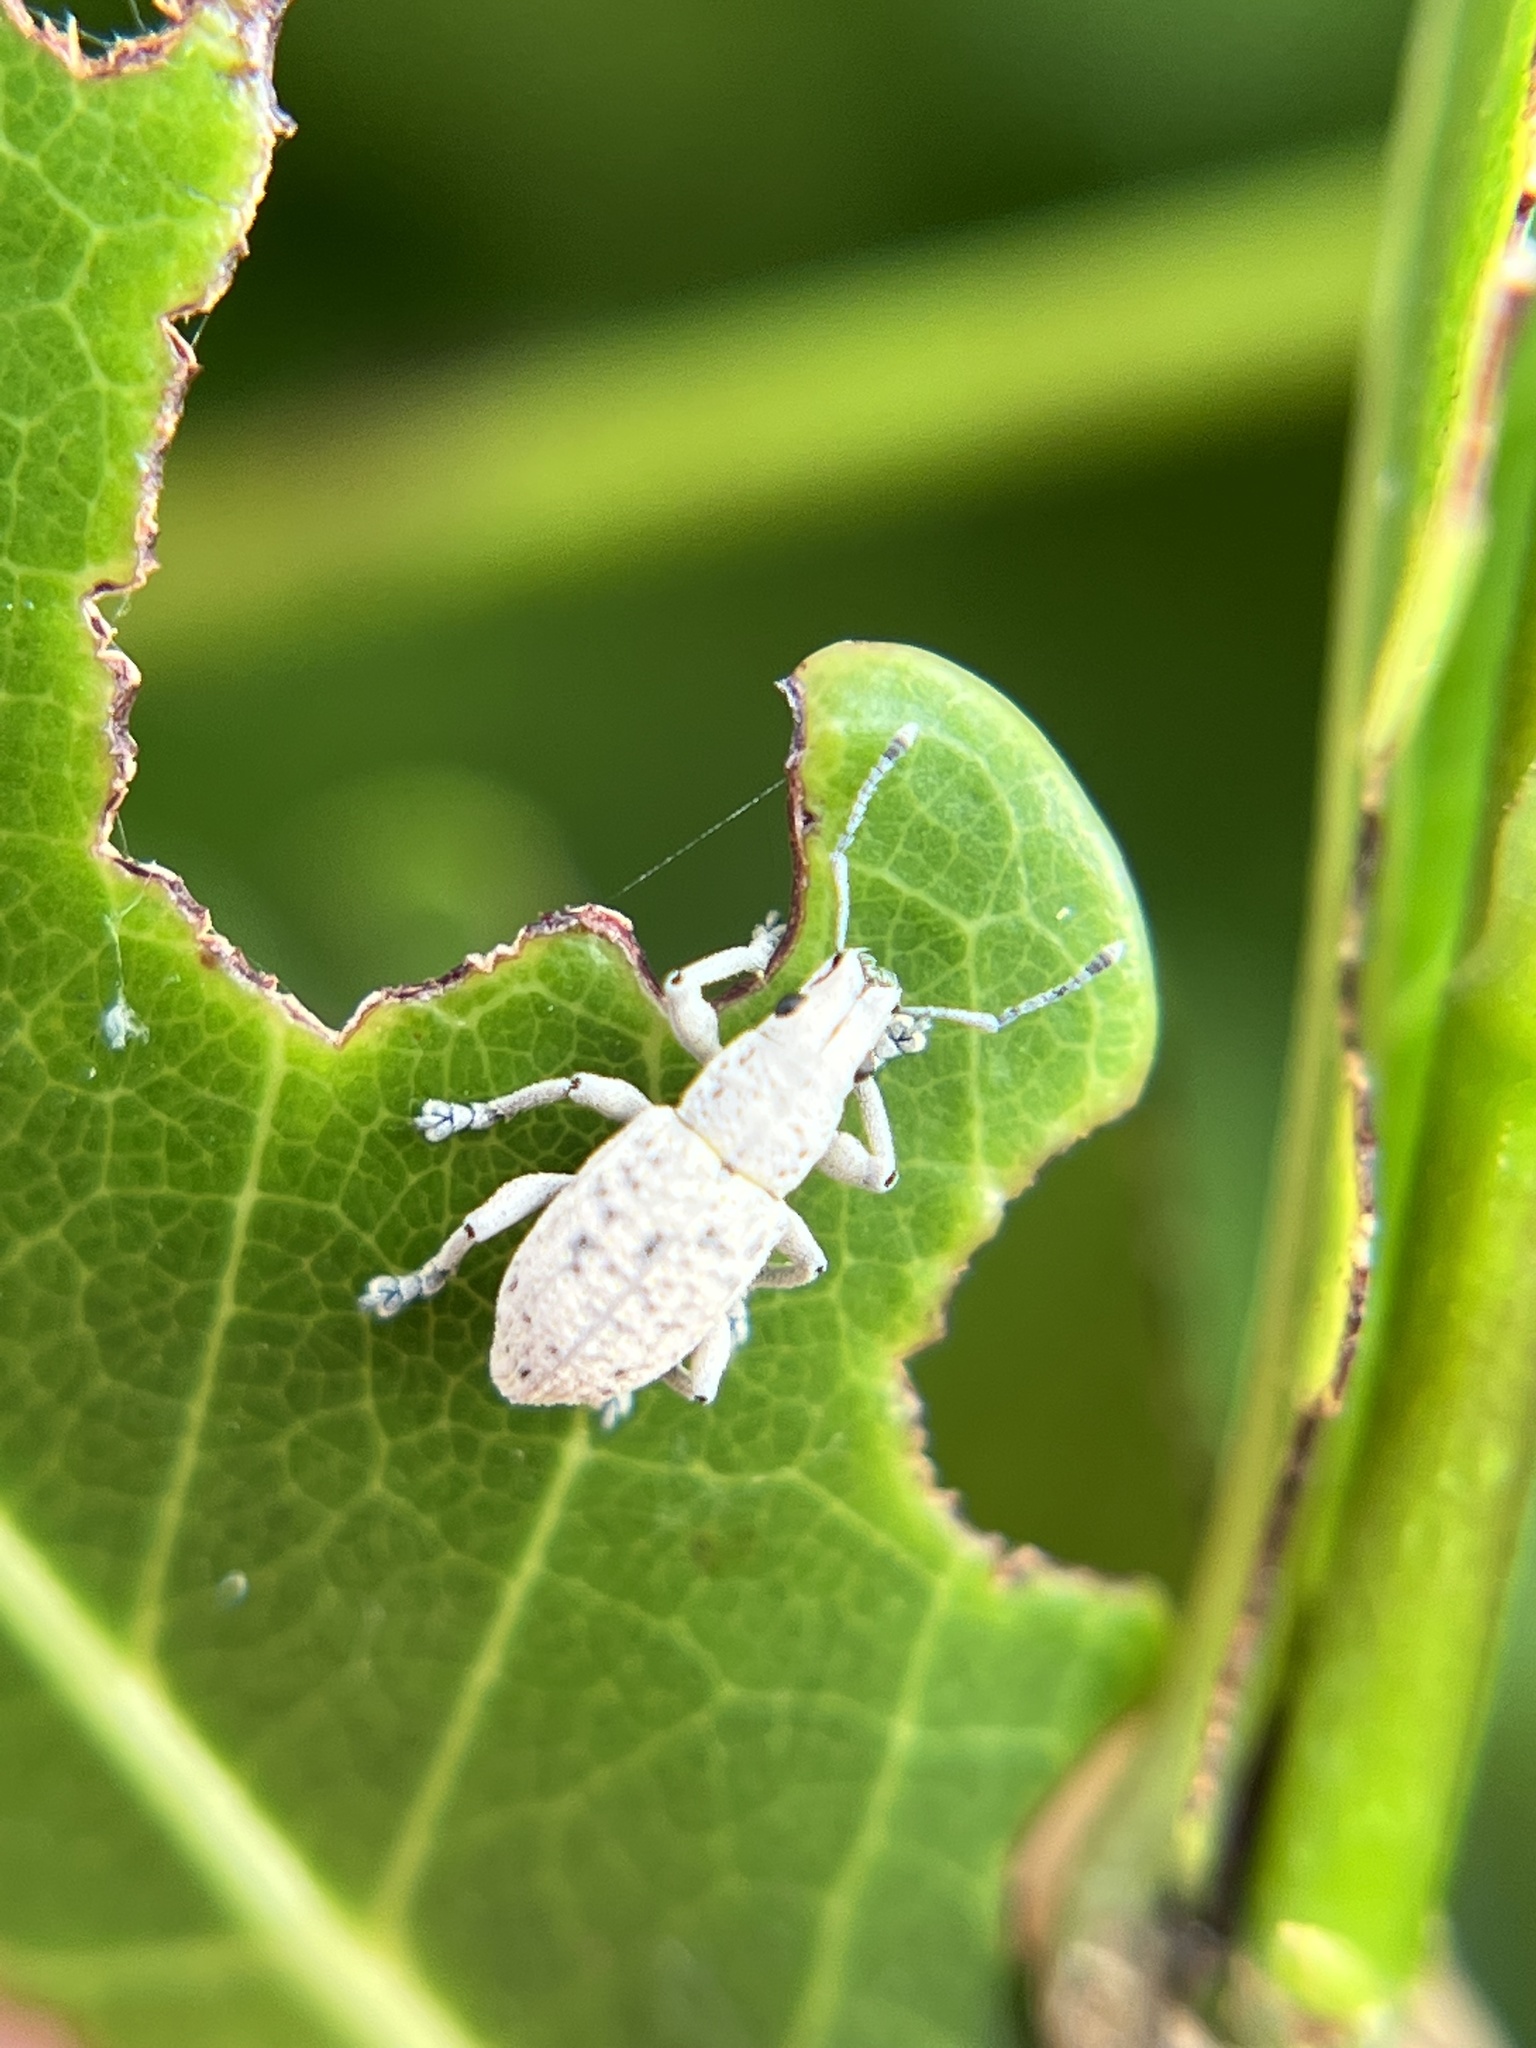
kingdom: Animalia
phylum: Arthropoda
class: Insecta
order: Coleoptera
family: Curculionidae
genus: Artipus
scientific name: Artipus floridanus
